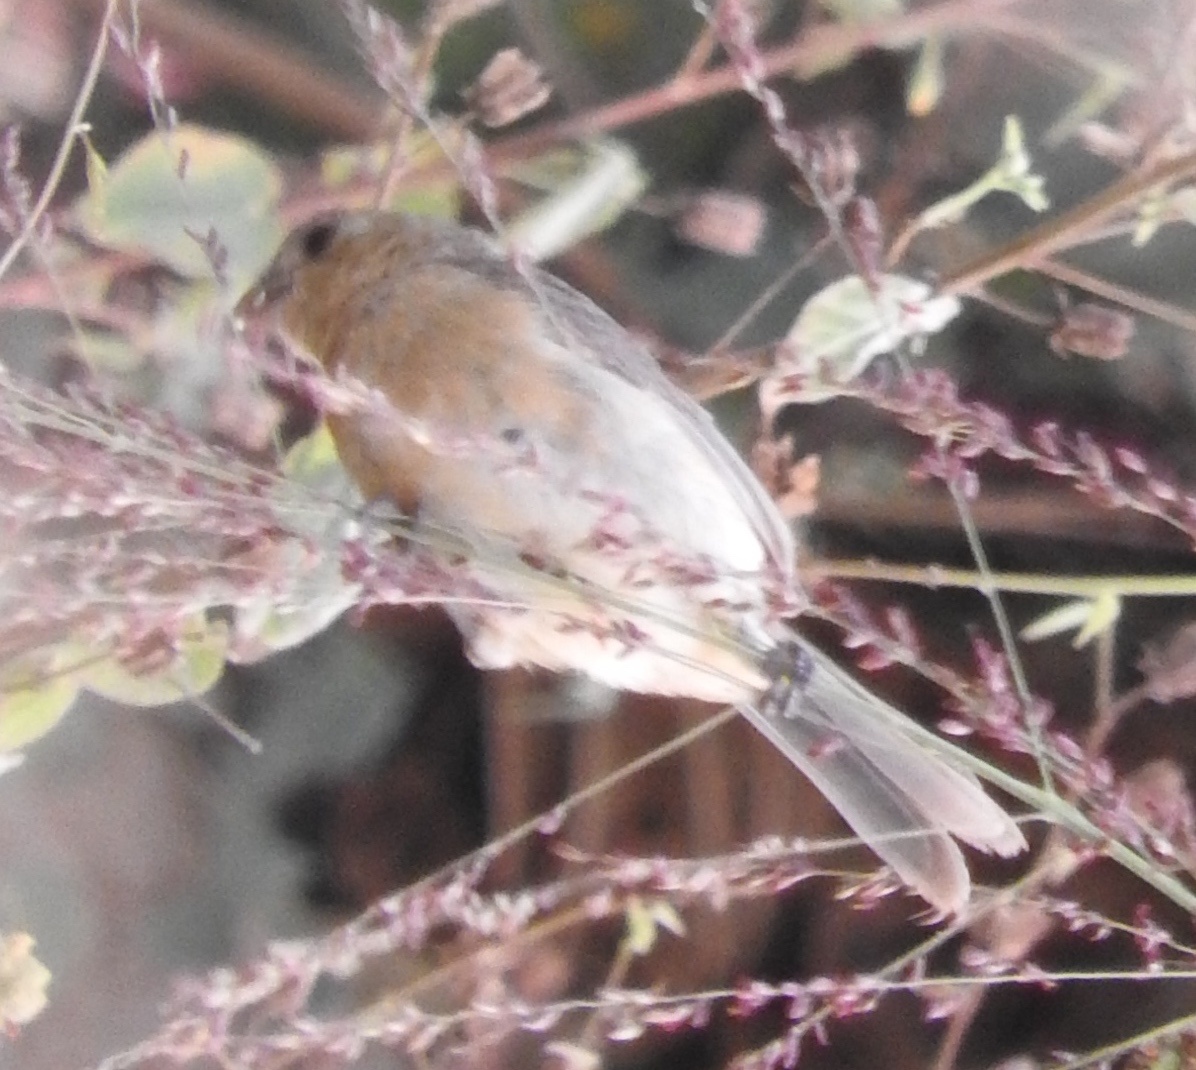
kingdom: Animalia
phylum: Chordata
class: Aves
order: Passeriformes
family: Thraupidae
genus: Sporophila
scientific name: Sporophila torqueola
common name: White-collared seedeater
